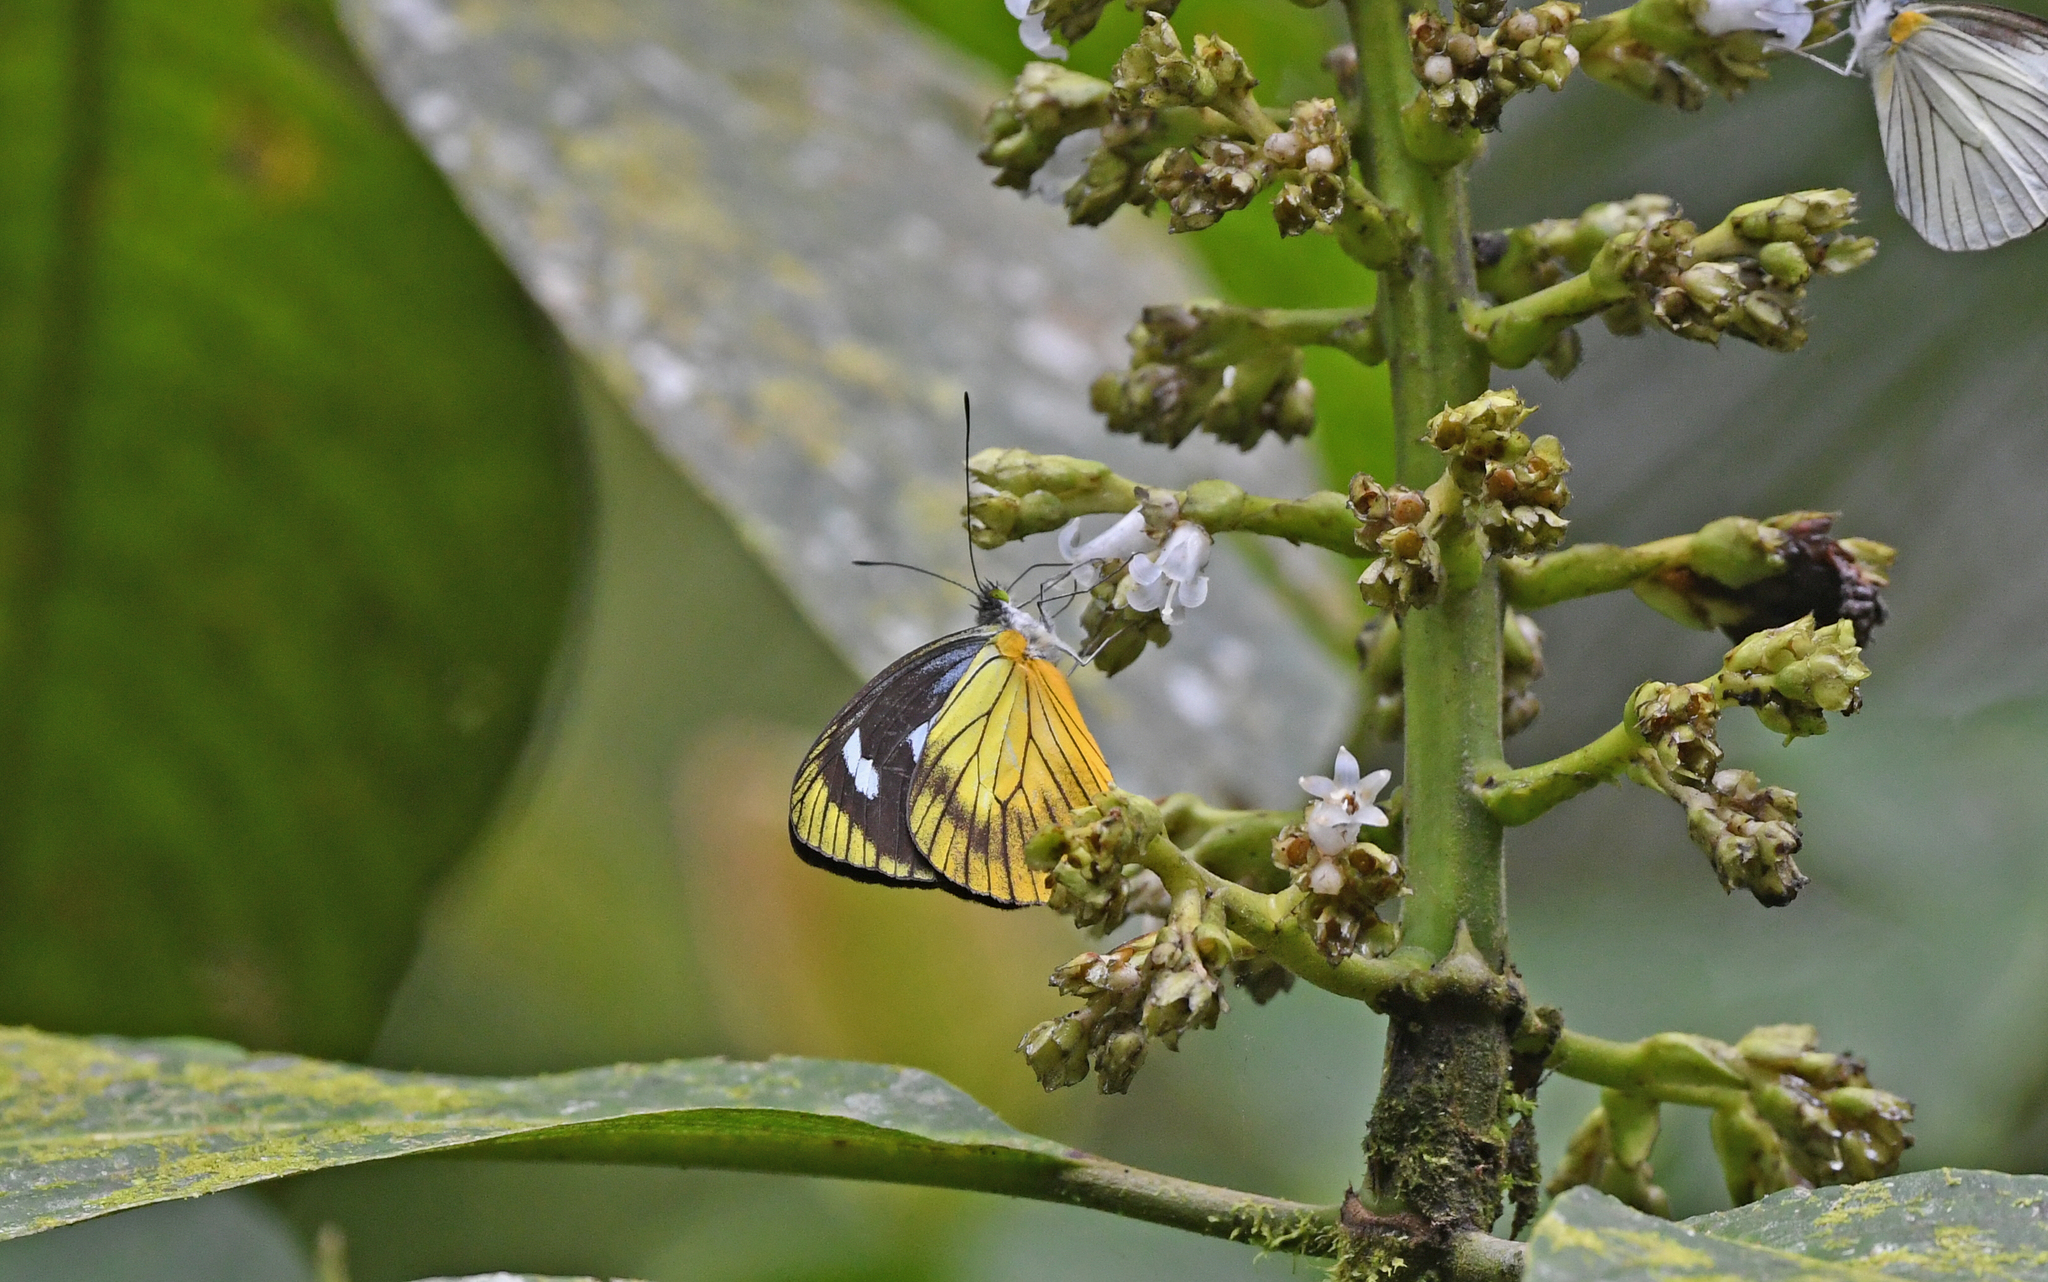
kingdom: Animalia
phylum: Arthropoda
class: Insecta
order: Lepidoptera
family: Pieridae
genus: Leptophobia
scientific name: Leptophobia caesia
